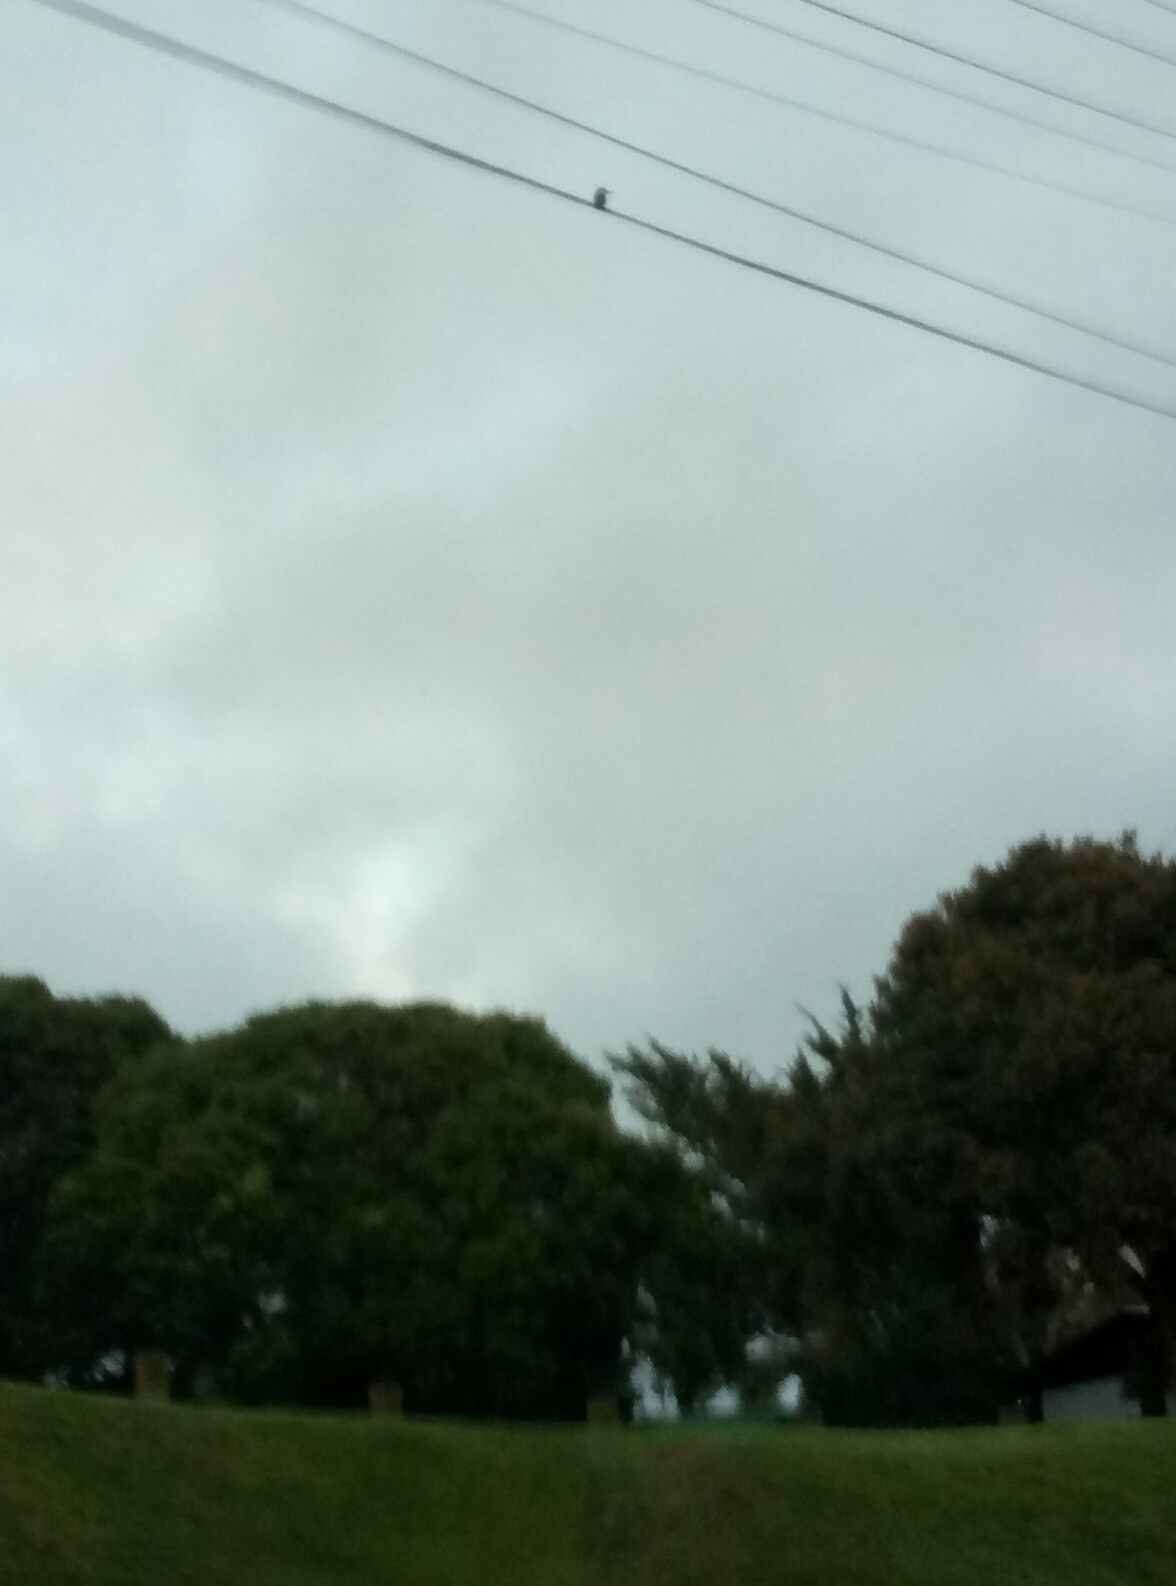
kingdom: Animalia
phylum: Chordata
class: Aves
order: Coraciiformes
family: Alcedinidae
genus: Todiramphus
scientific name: Todiramphus sanctus
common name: Sacred kingfisher
